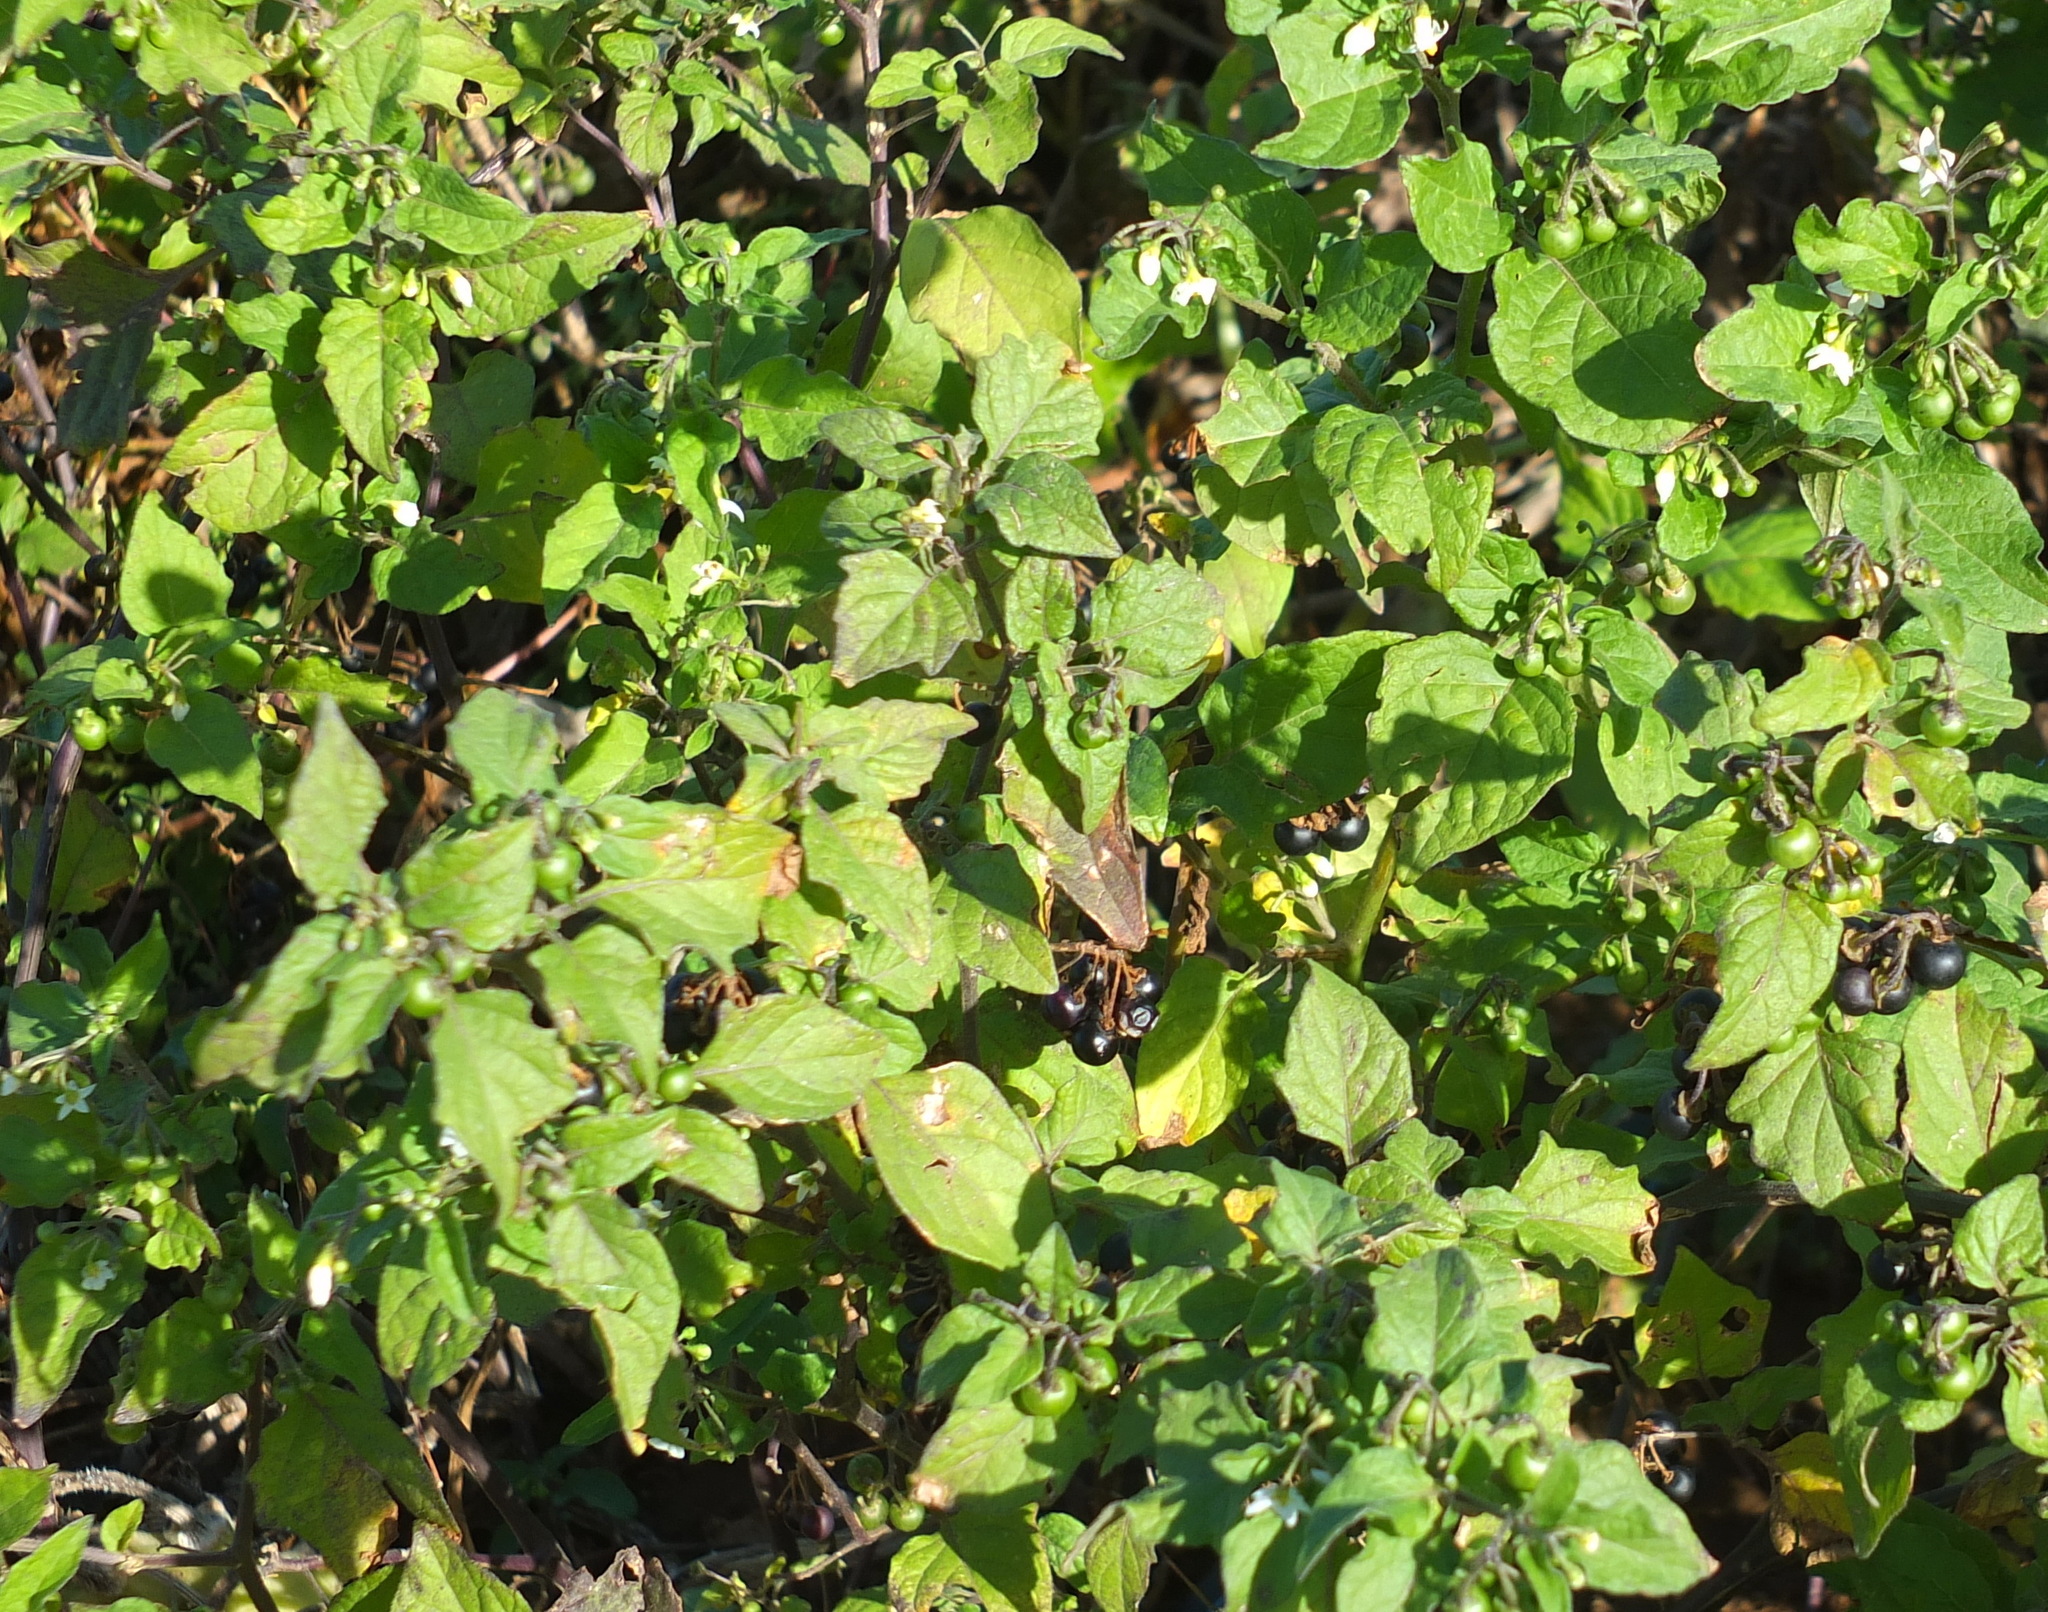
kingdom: Plantae
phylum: Tracheophyta
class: Magnoliopsida
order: Solanales
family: Solanaceae
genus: Solanum
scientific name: Solanum nigrum
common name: Black nightshade
